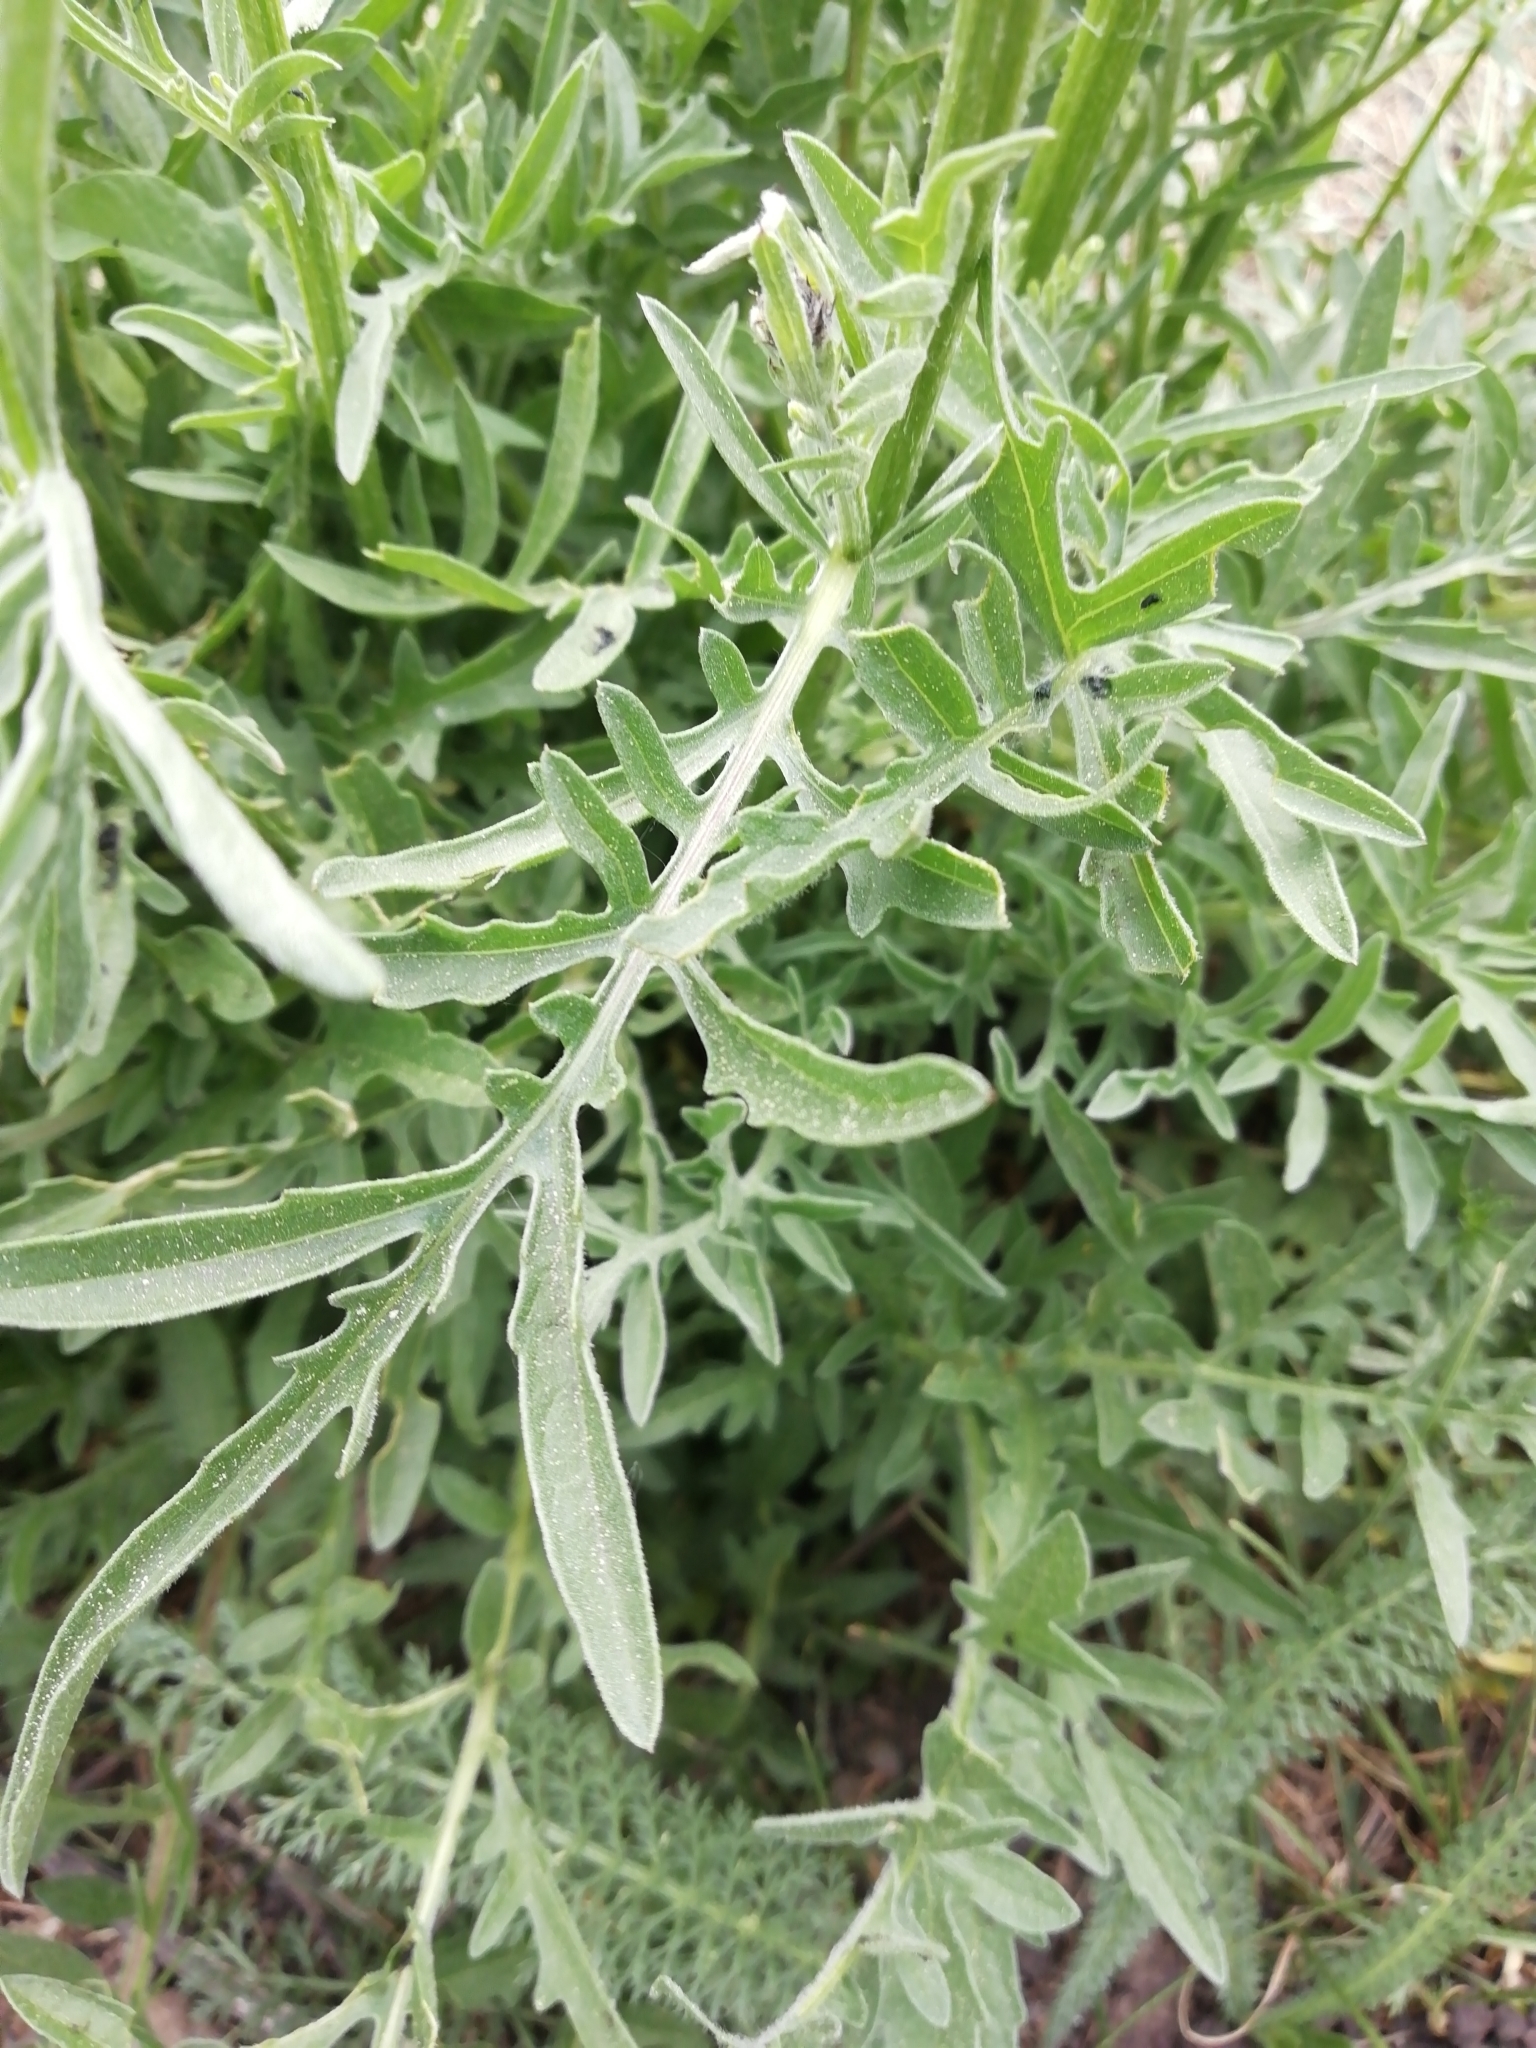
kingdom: Plantae
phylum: Tracheophyta
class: Magnoliopsida
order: Asterales
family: Asteraceae
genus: Centaurea
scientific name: Centaurea scabiosa
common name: Greater knapweed
